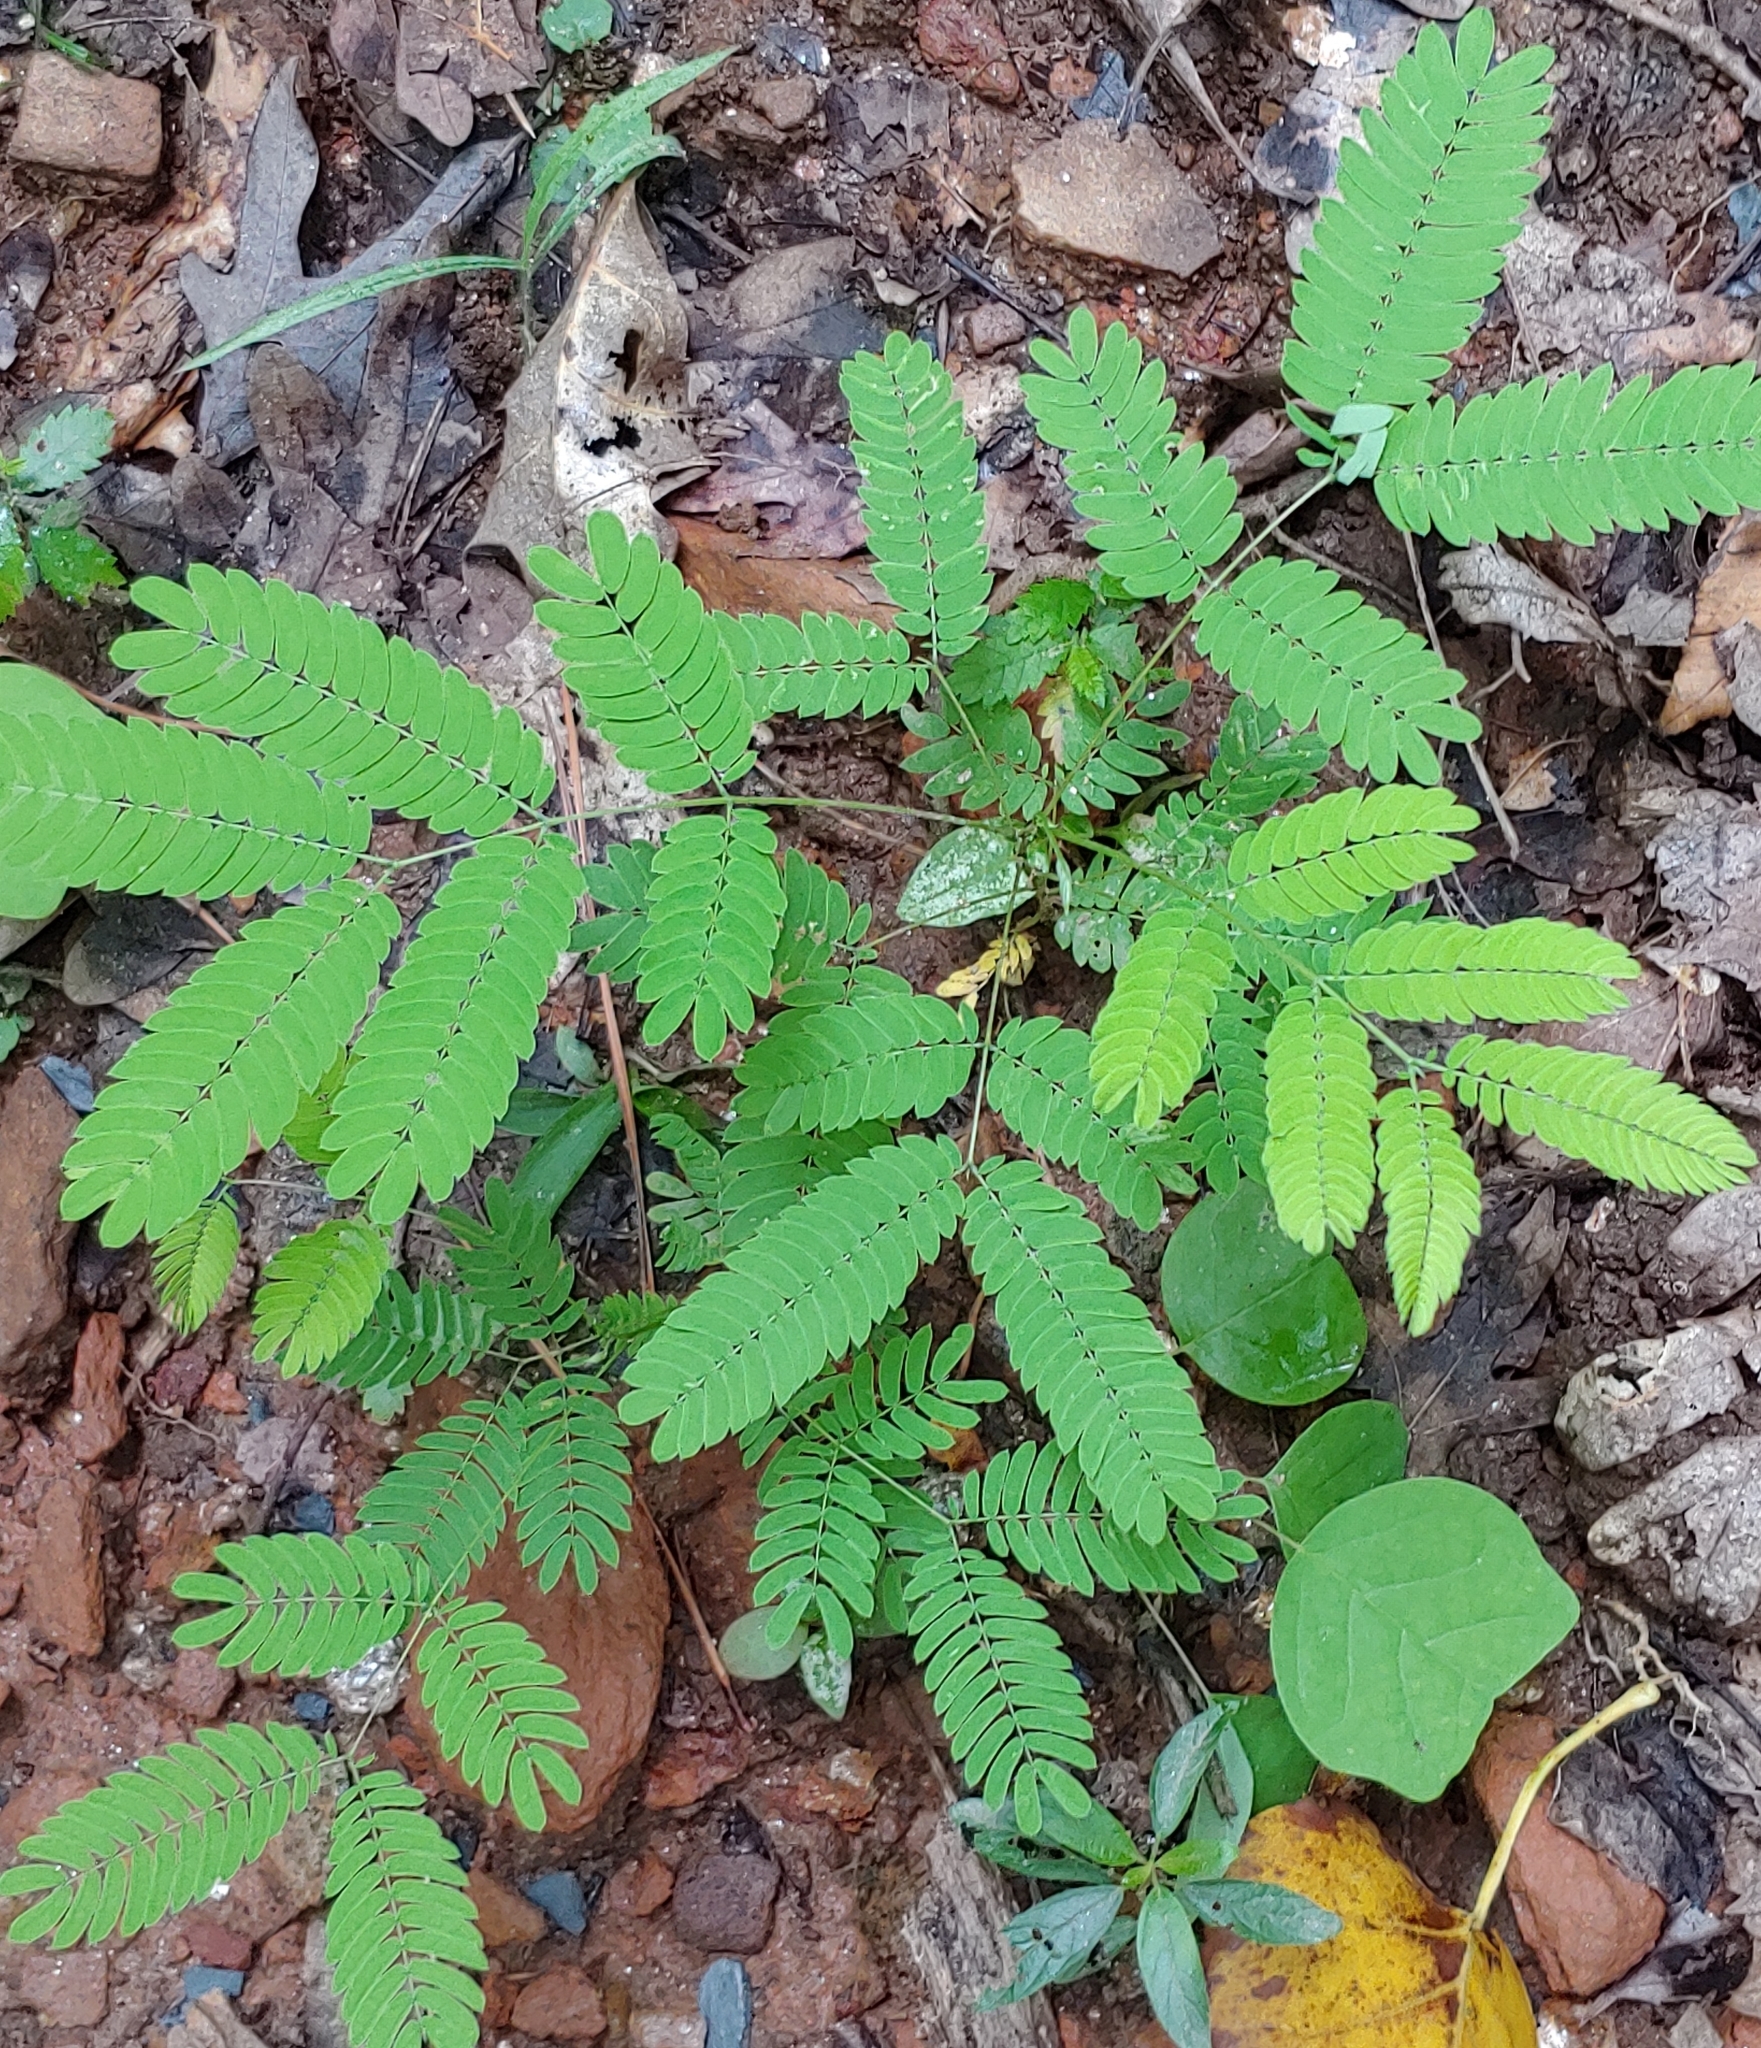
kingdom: Plantae
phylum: Tracheophyta
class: Magnoliopsida
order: Fabales
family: Fabaceae
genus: Albizia
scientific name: Albizia julibrissin
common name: Silktree
